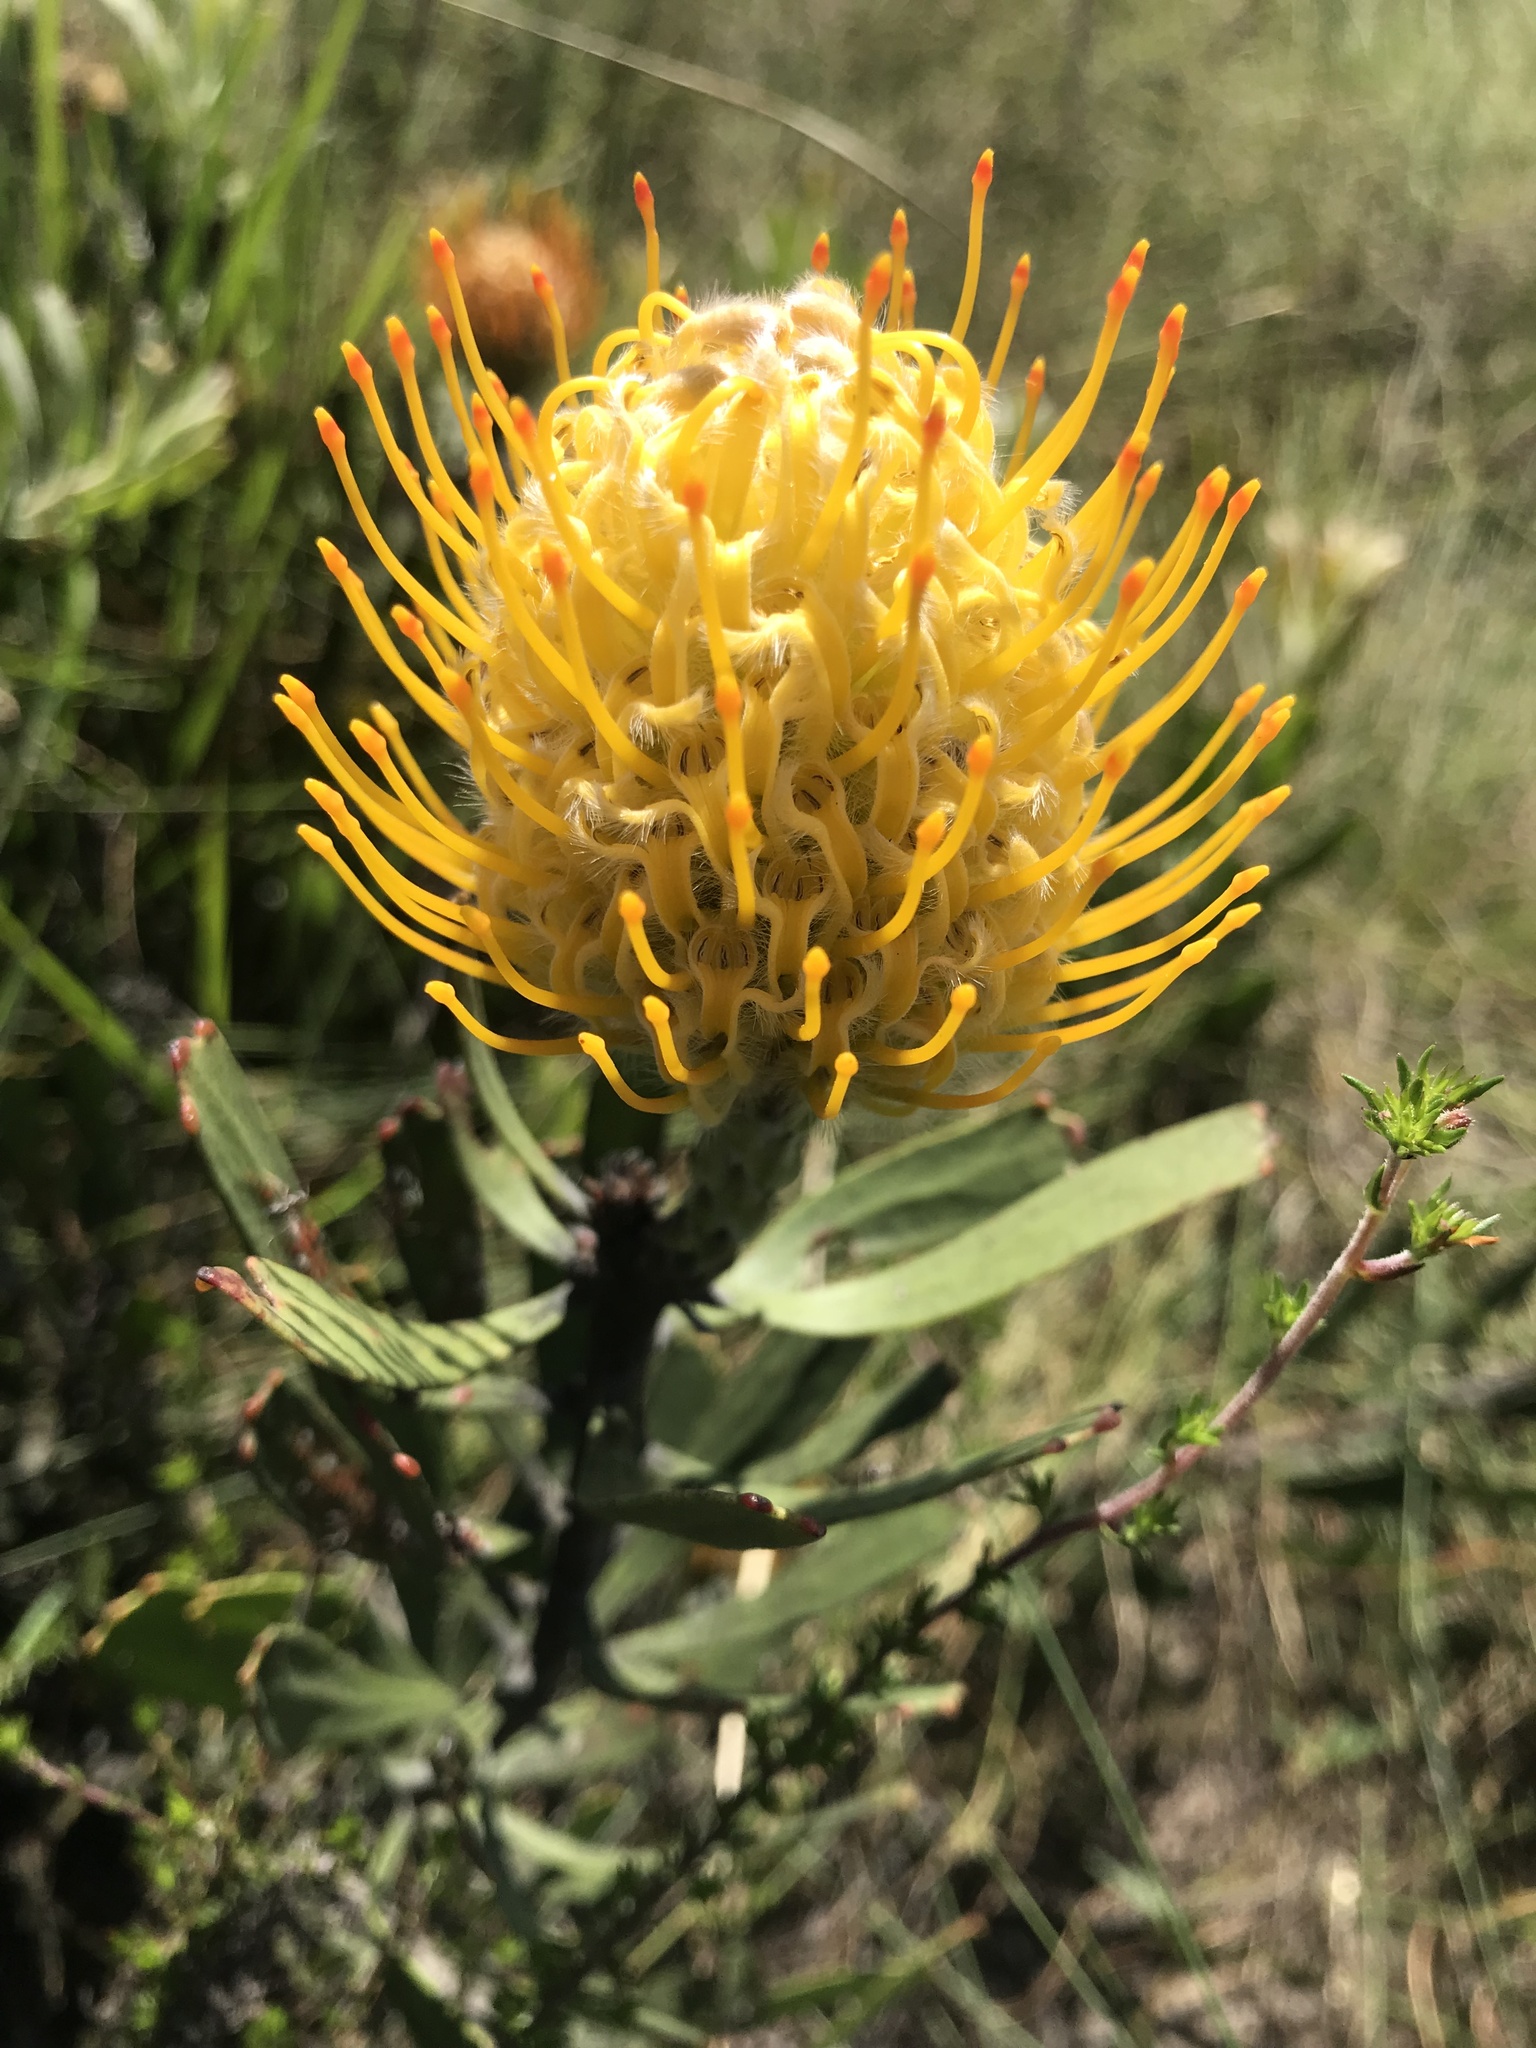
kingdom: Plantae
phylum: Tracheophyta
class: Magnoliopsida
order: Proteales
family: Proteaceae
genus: Leucospermum
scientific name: Leucospermum cuneiforme
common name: Common pincushion
